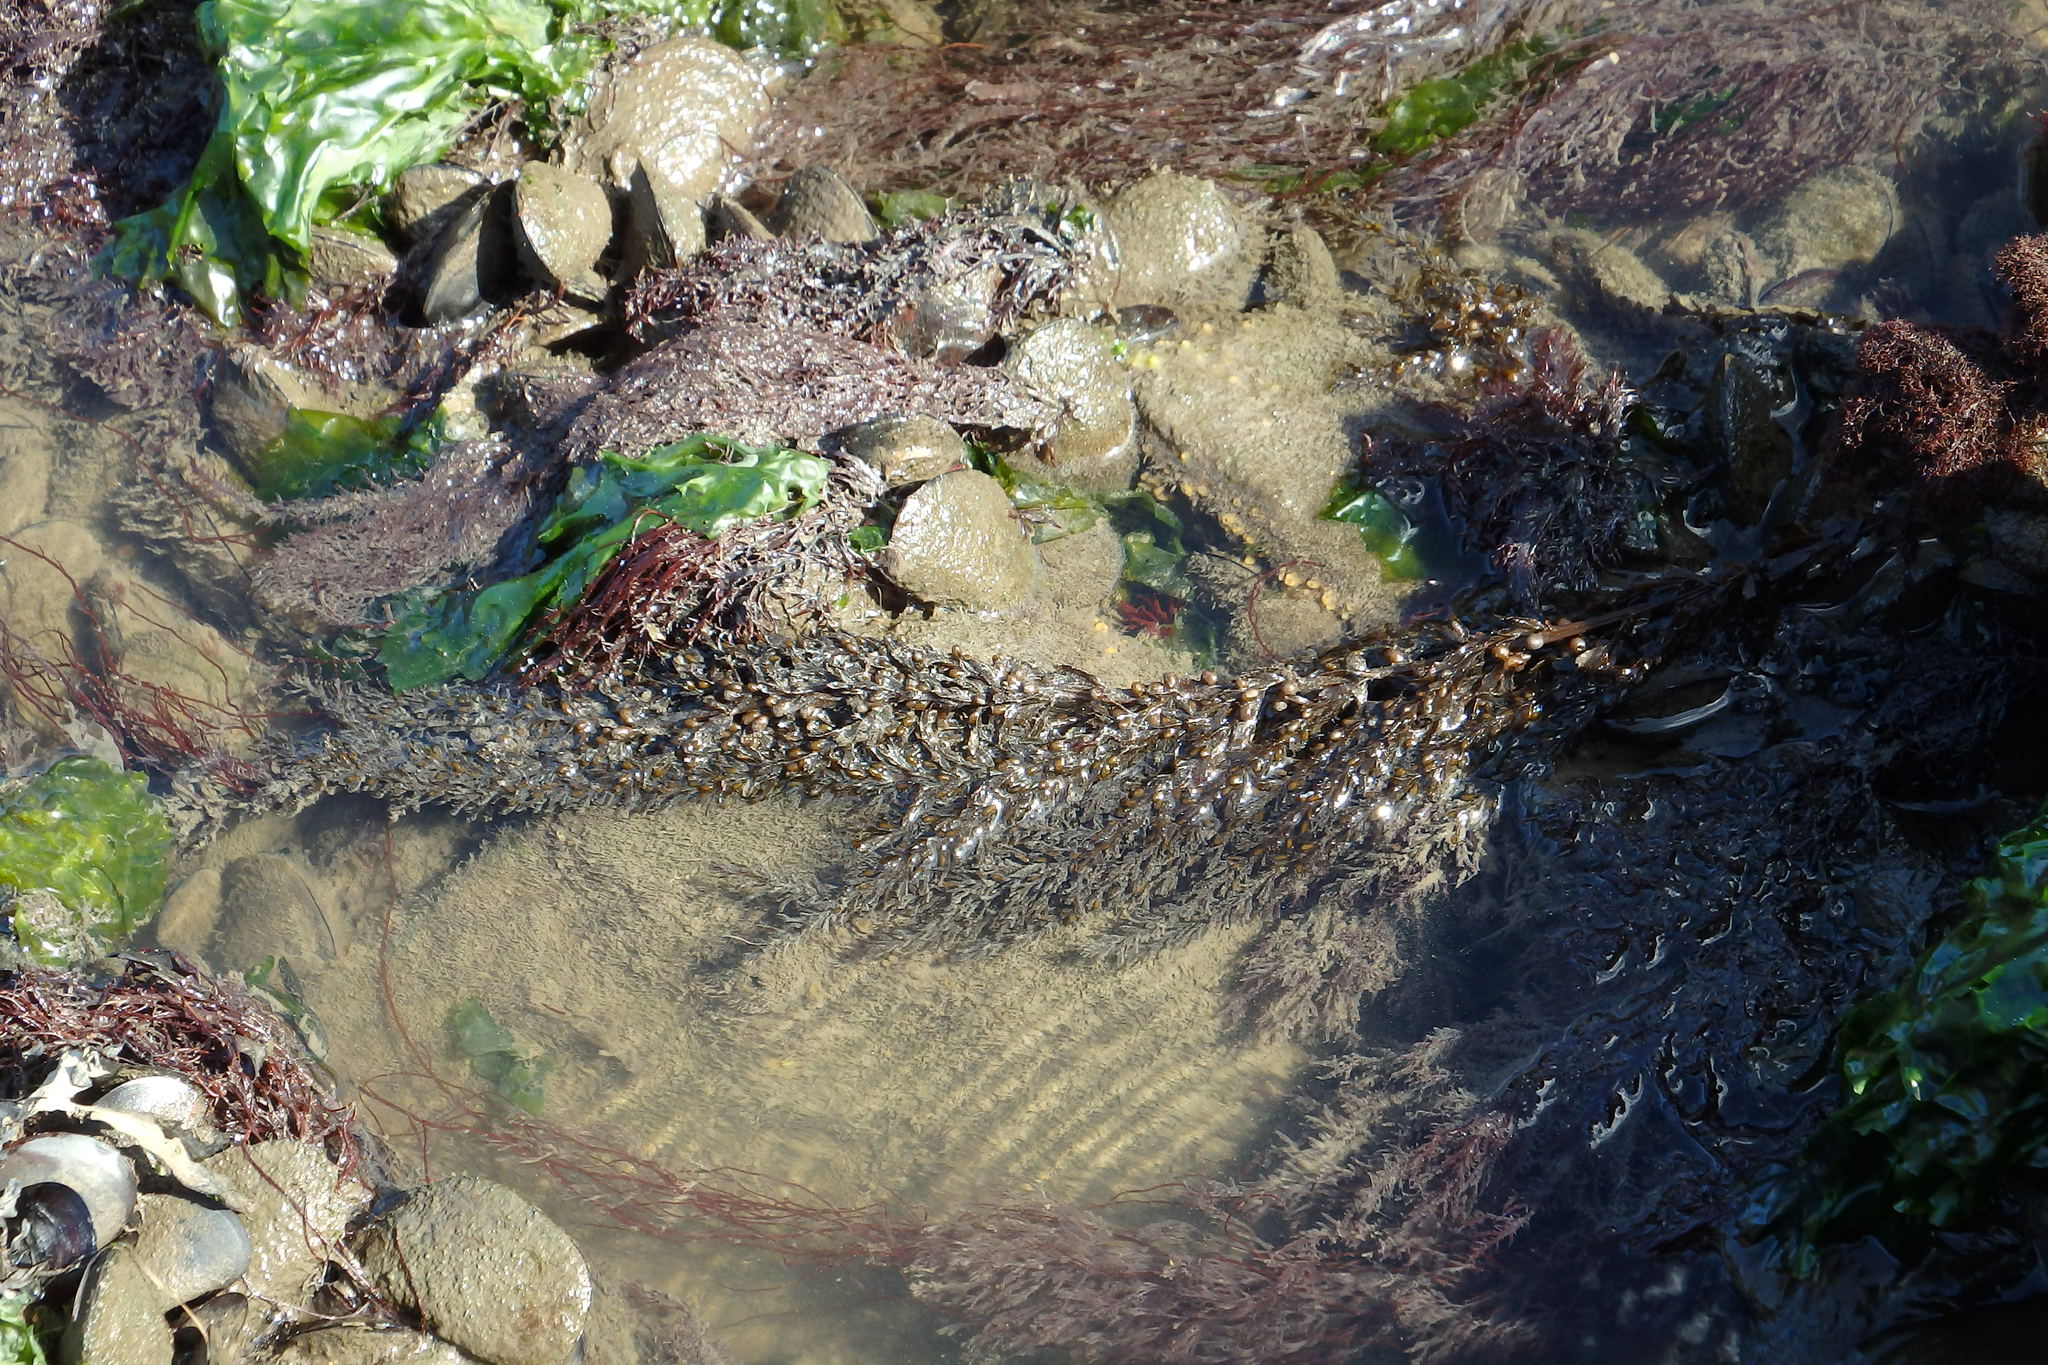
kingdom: Chromista
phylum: Ochrophyta
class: Phaeophyceae
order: Fucales
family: Sargassaceae
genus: Sargassum
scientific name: Sargassum muticum
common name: Japweed
